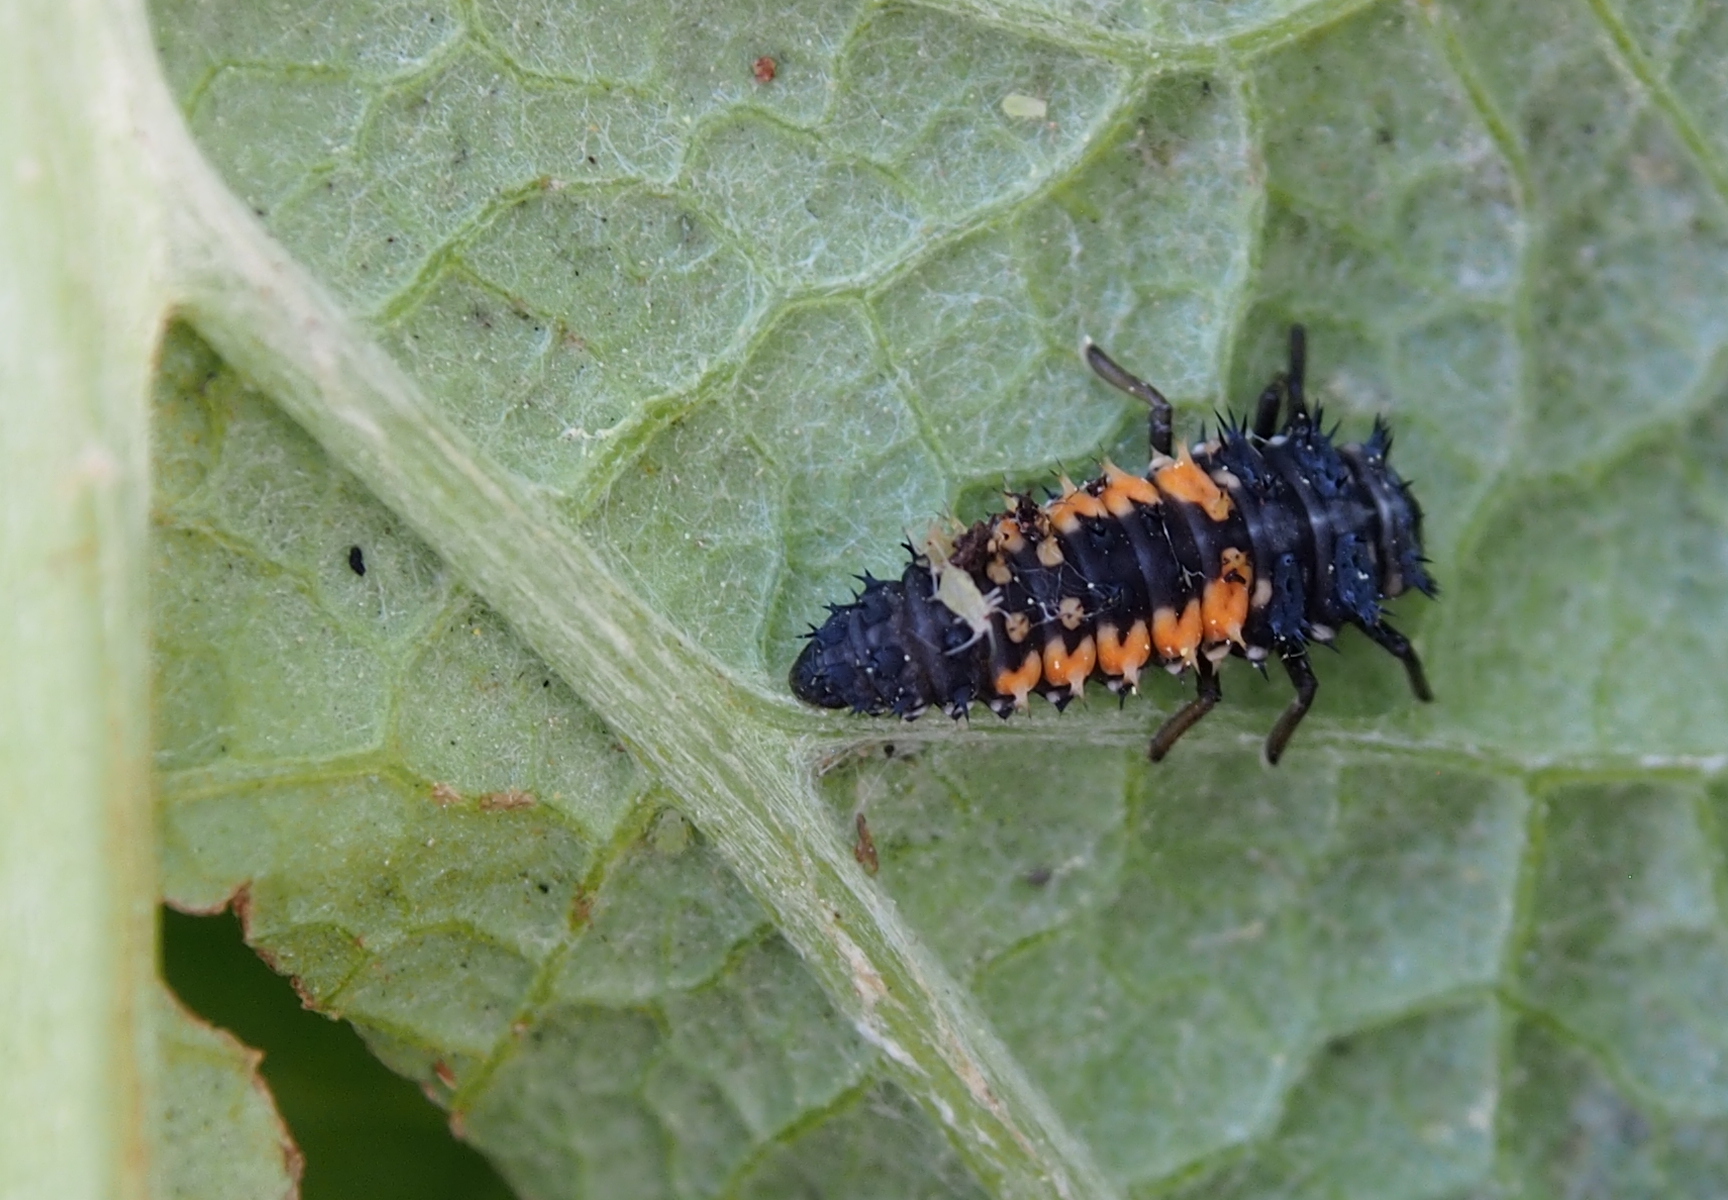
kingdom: Animalia
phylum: Arthropoda
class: Insecta
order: Coleoptera
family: Coccinellidae
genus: Harmonia
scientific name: Harmonia axyridis
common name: Harlequin ladybird
